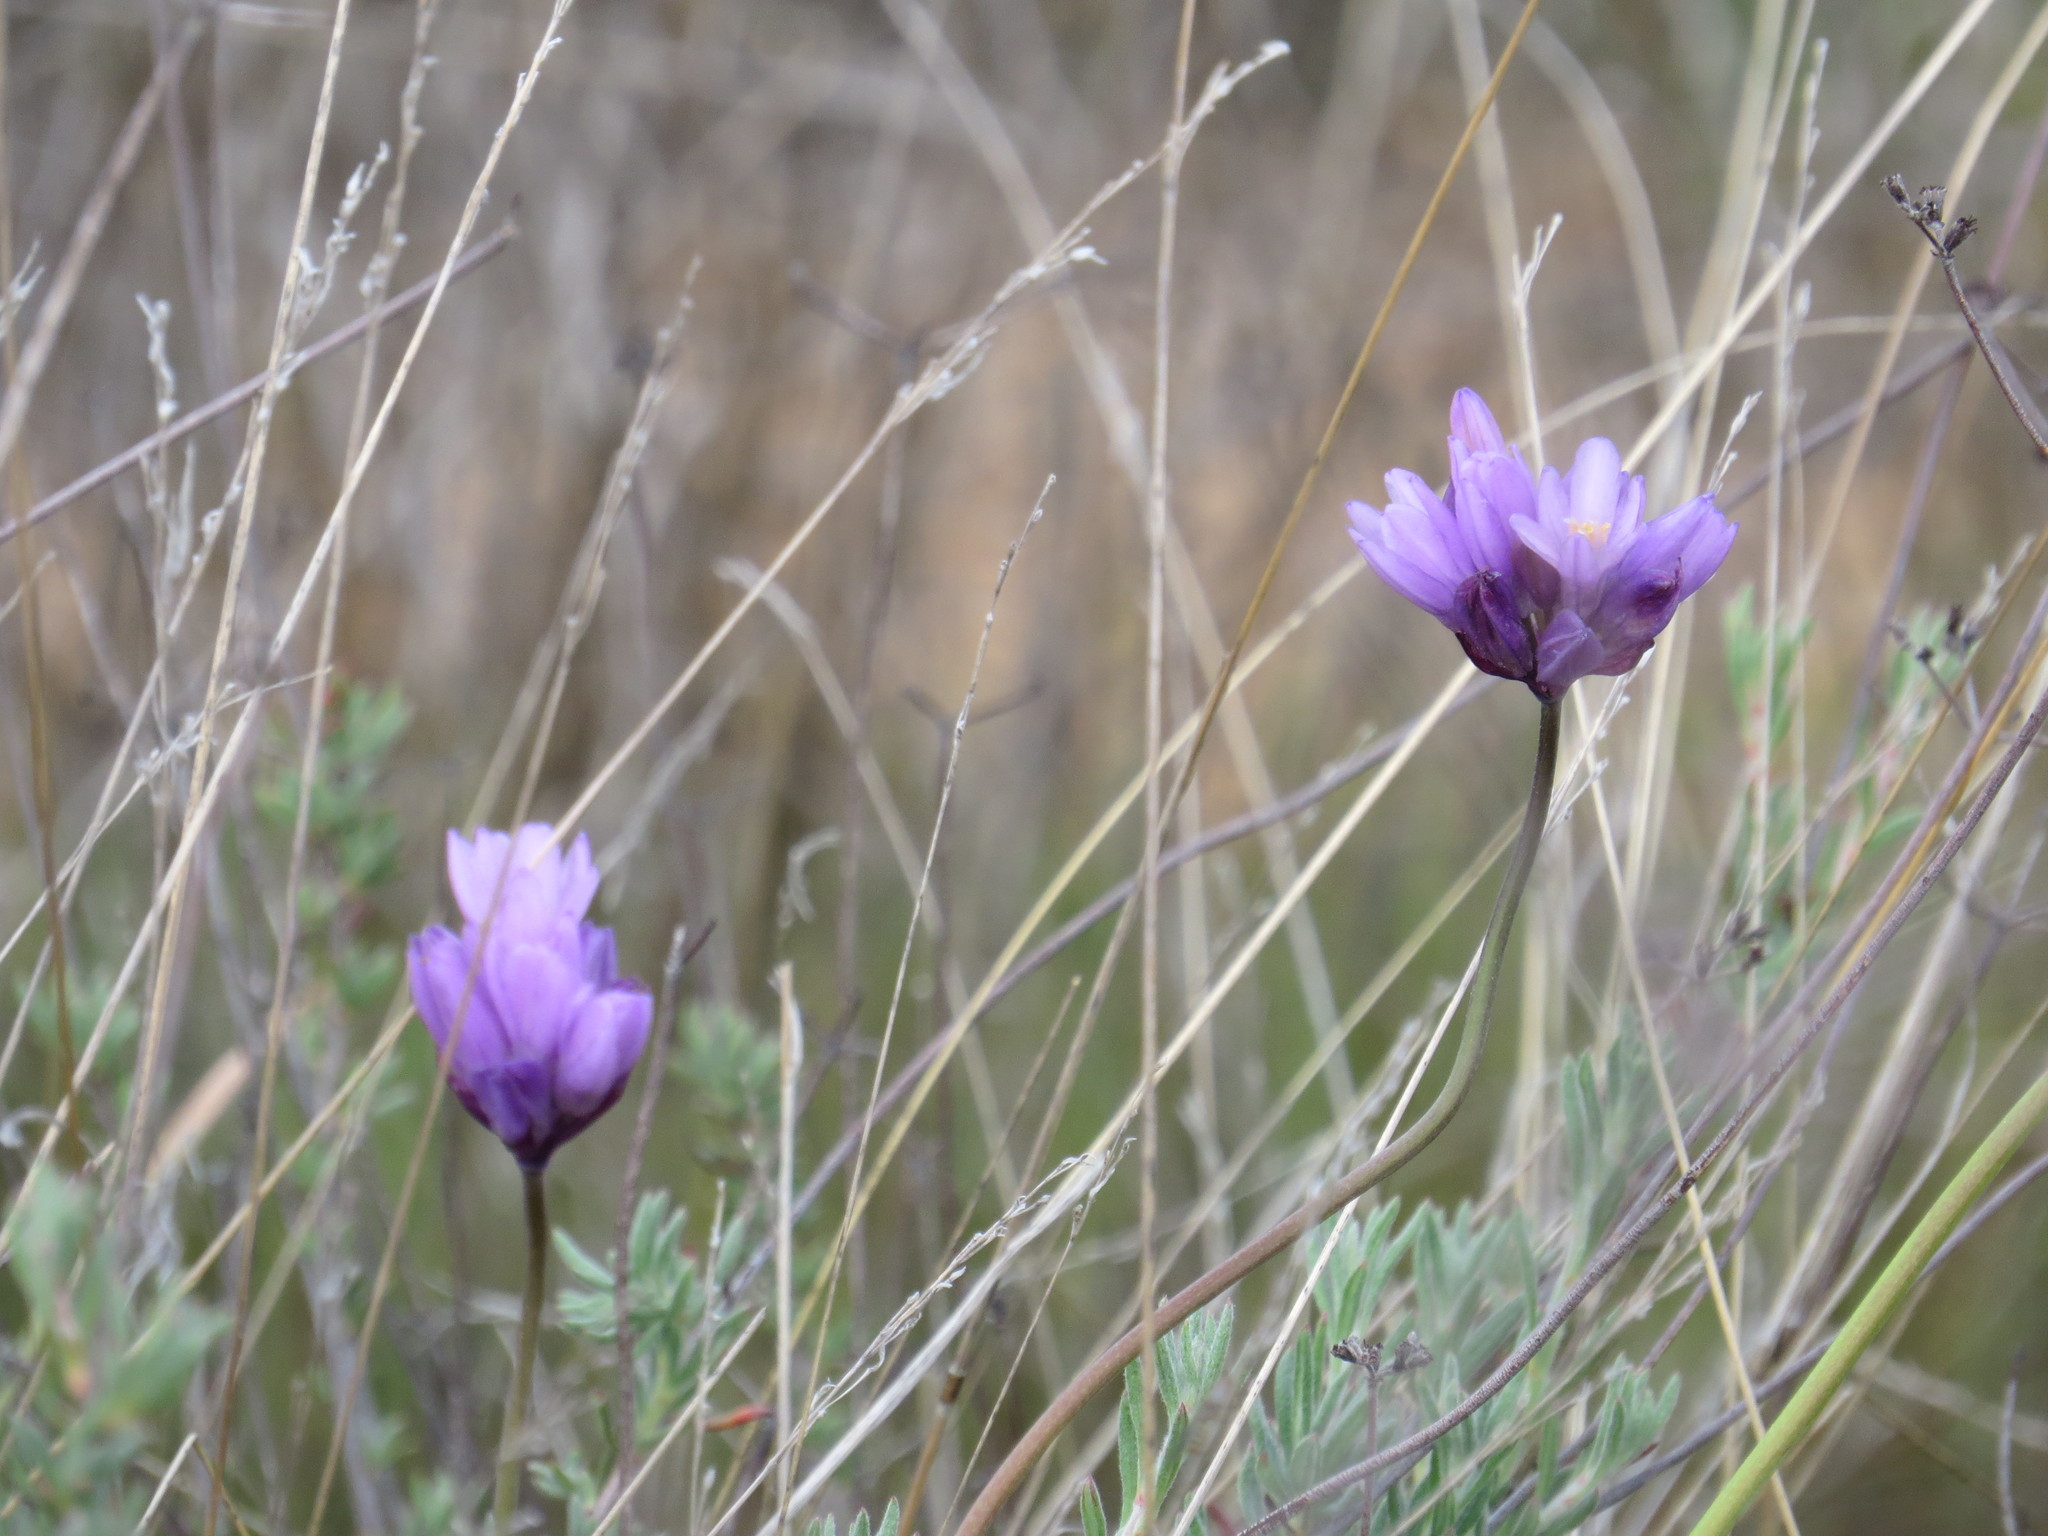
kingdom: Plantae
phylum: Tracheophyta
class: Liliopsida
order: Asparagales
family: Asparagaceae
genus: Dipterostemon
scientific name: Dipterostemon capitatus
